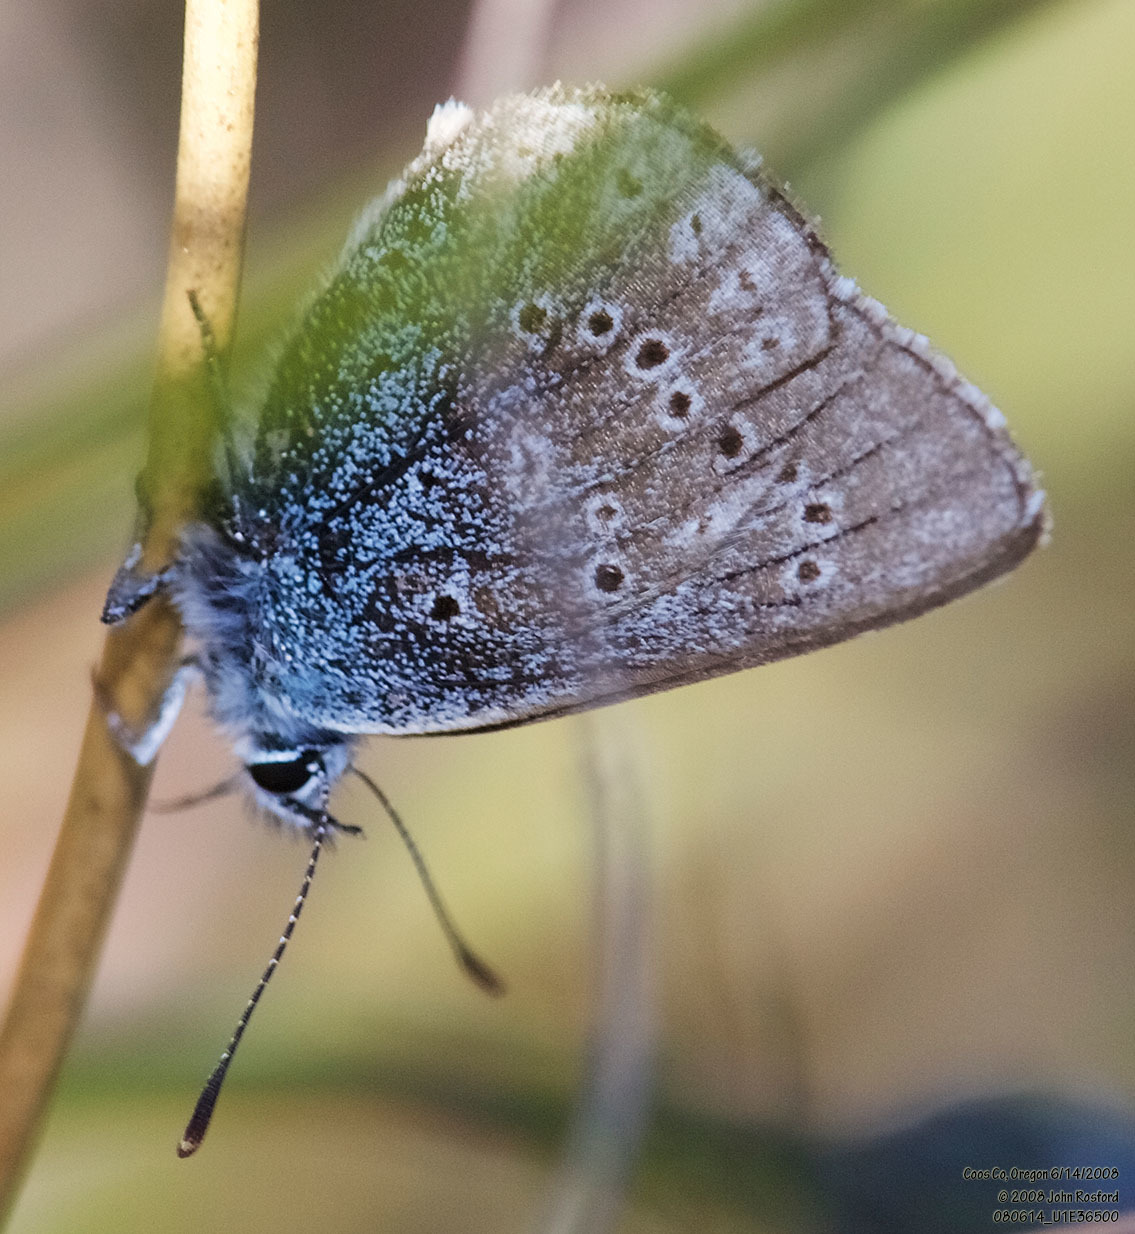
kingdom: Animalia
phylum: Arthropoda
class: Insecta
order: Lepidoptera
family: Lycaenidae
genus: Icaricia
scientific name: Icaricia saepiolus
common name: Greenish blue
